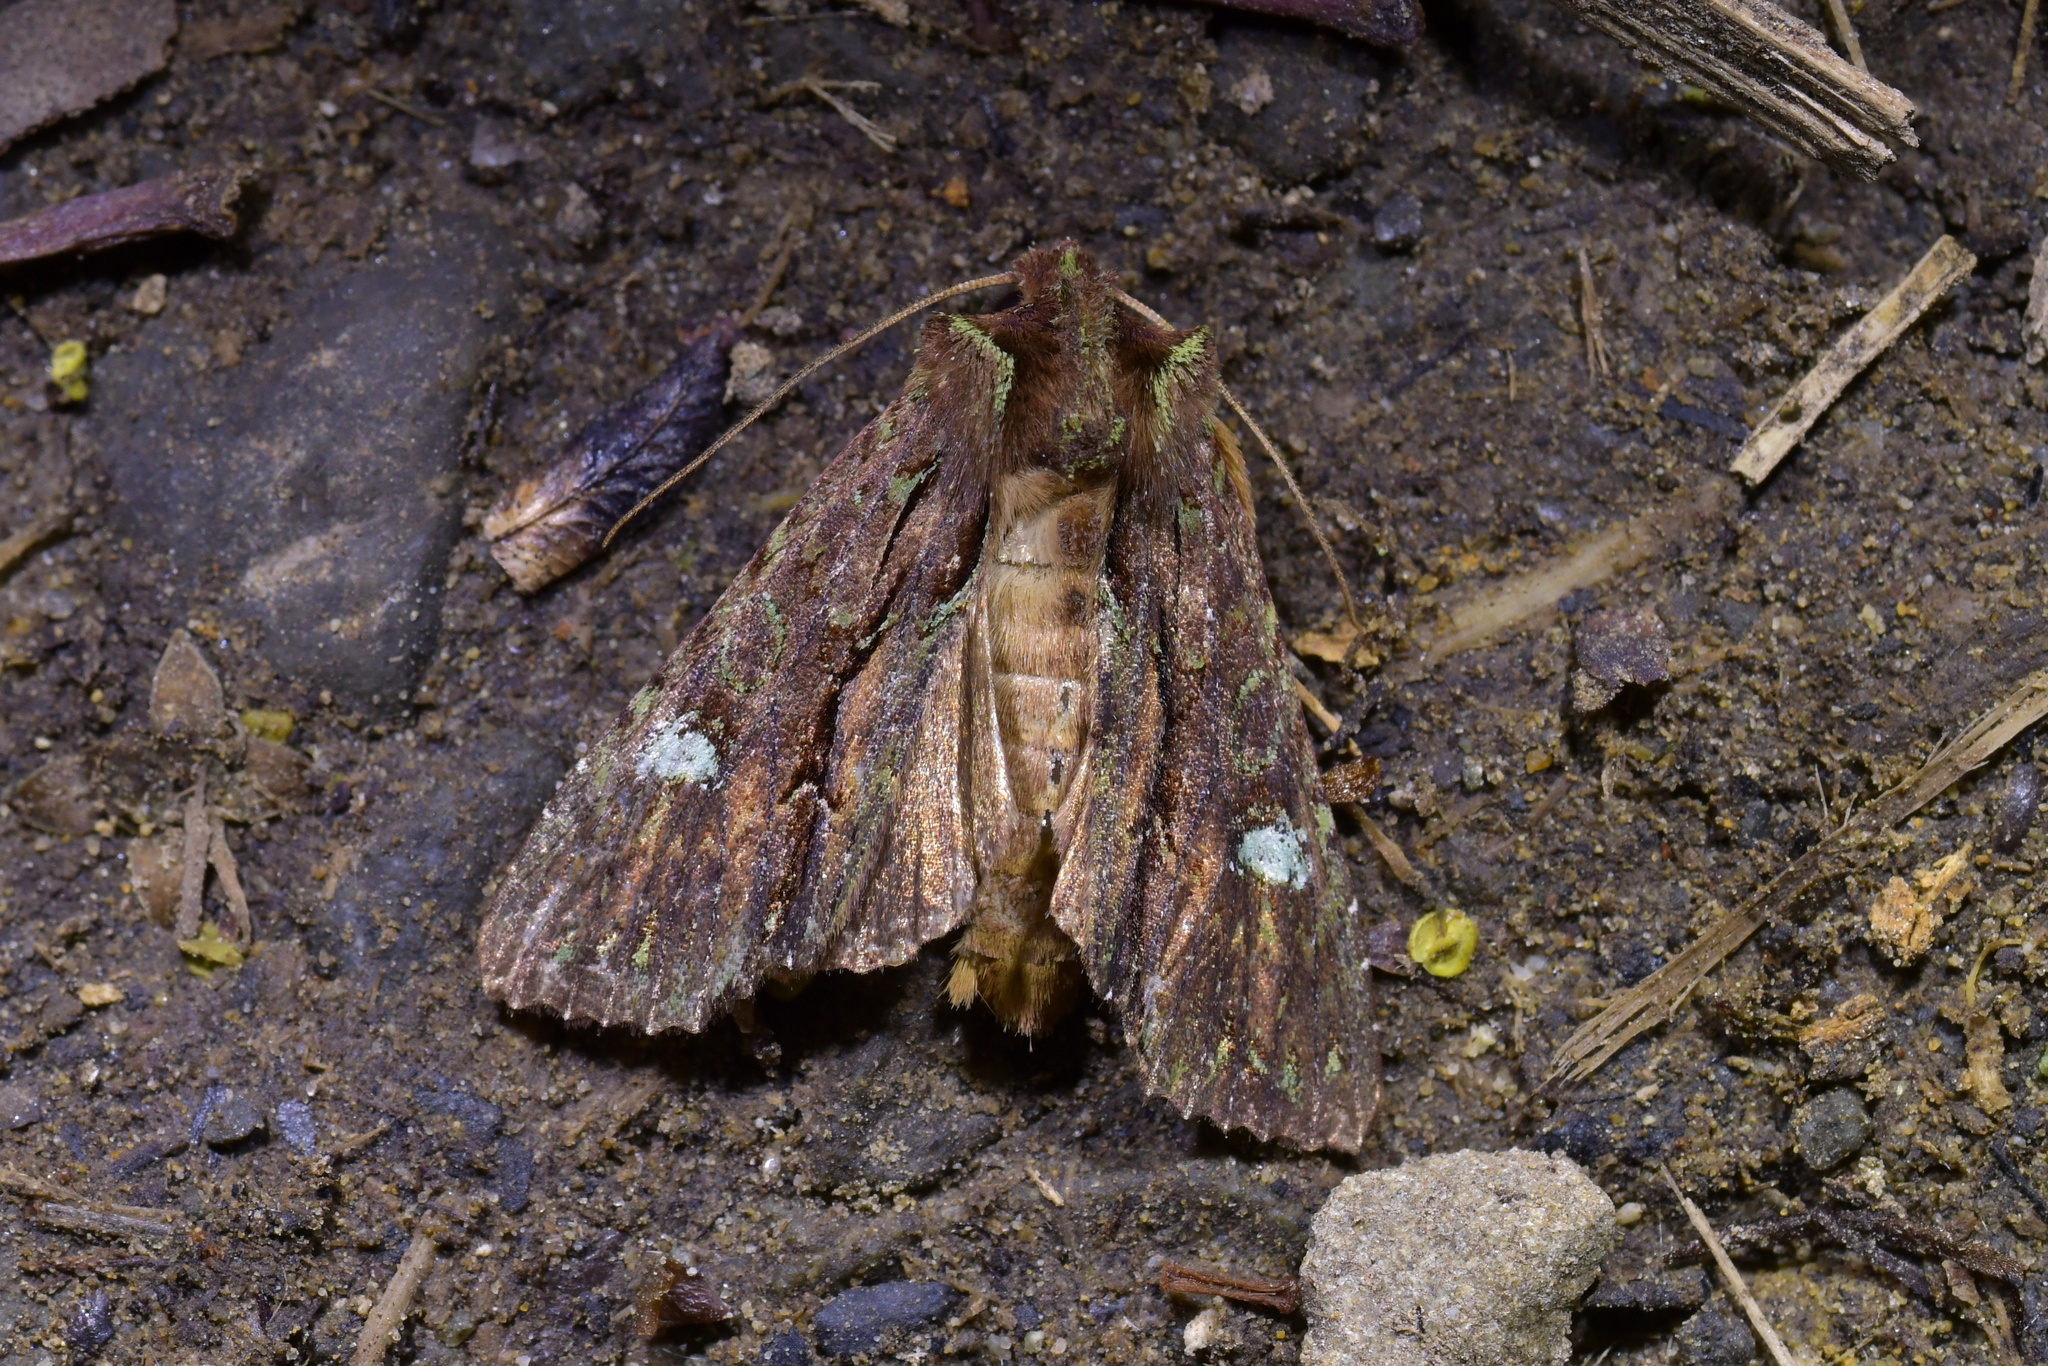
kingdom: Animalia
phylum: Arthropoda
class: Insecta
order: Lepidoptera
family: Noctuidae
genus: Meterana
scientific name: Meterana diatmeta
